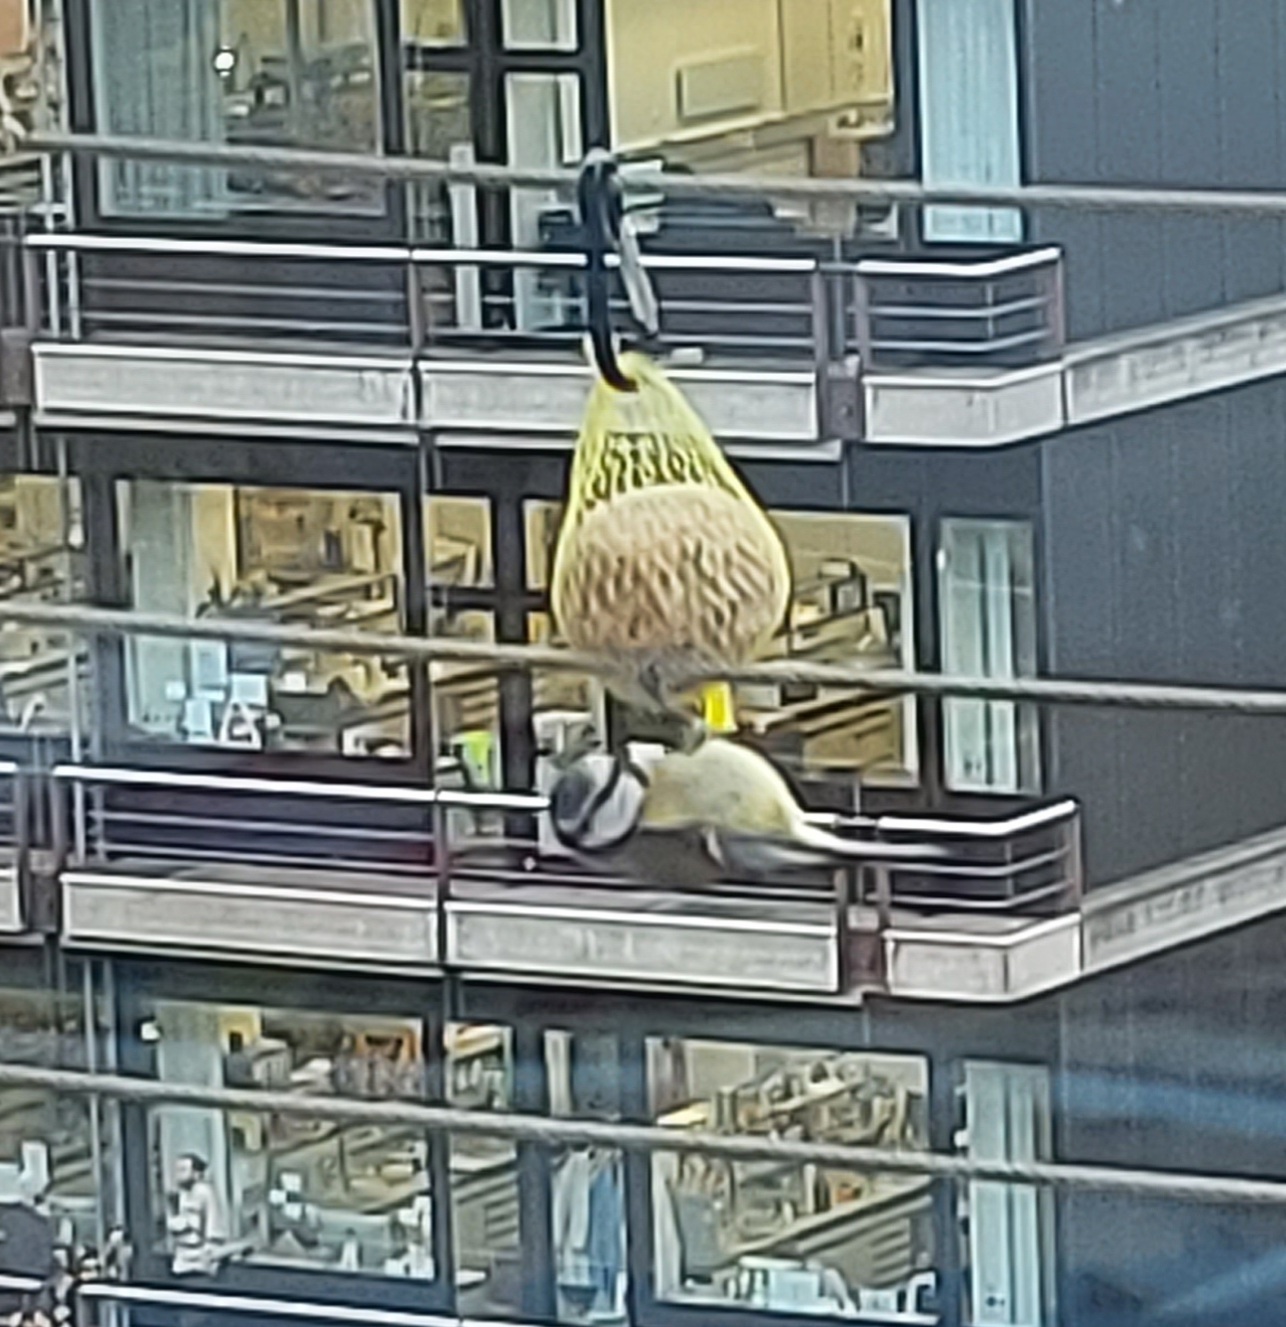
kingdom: Animalia
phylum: Chordata
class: Aves
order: Passeriformes
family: Paridae
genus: Cyanistes
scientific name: Cyanistes caeruleus
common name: Eurasian blue tit
